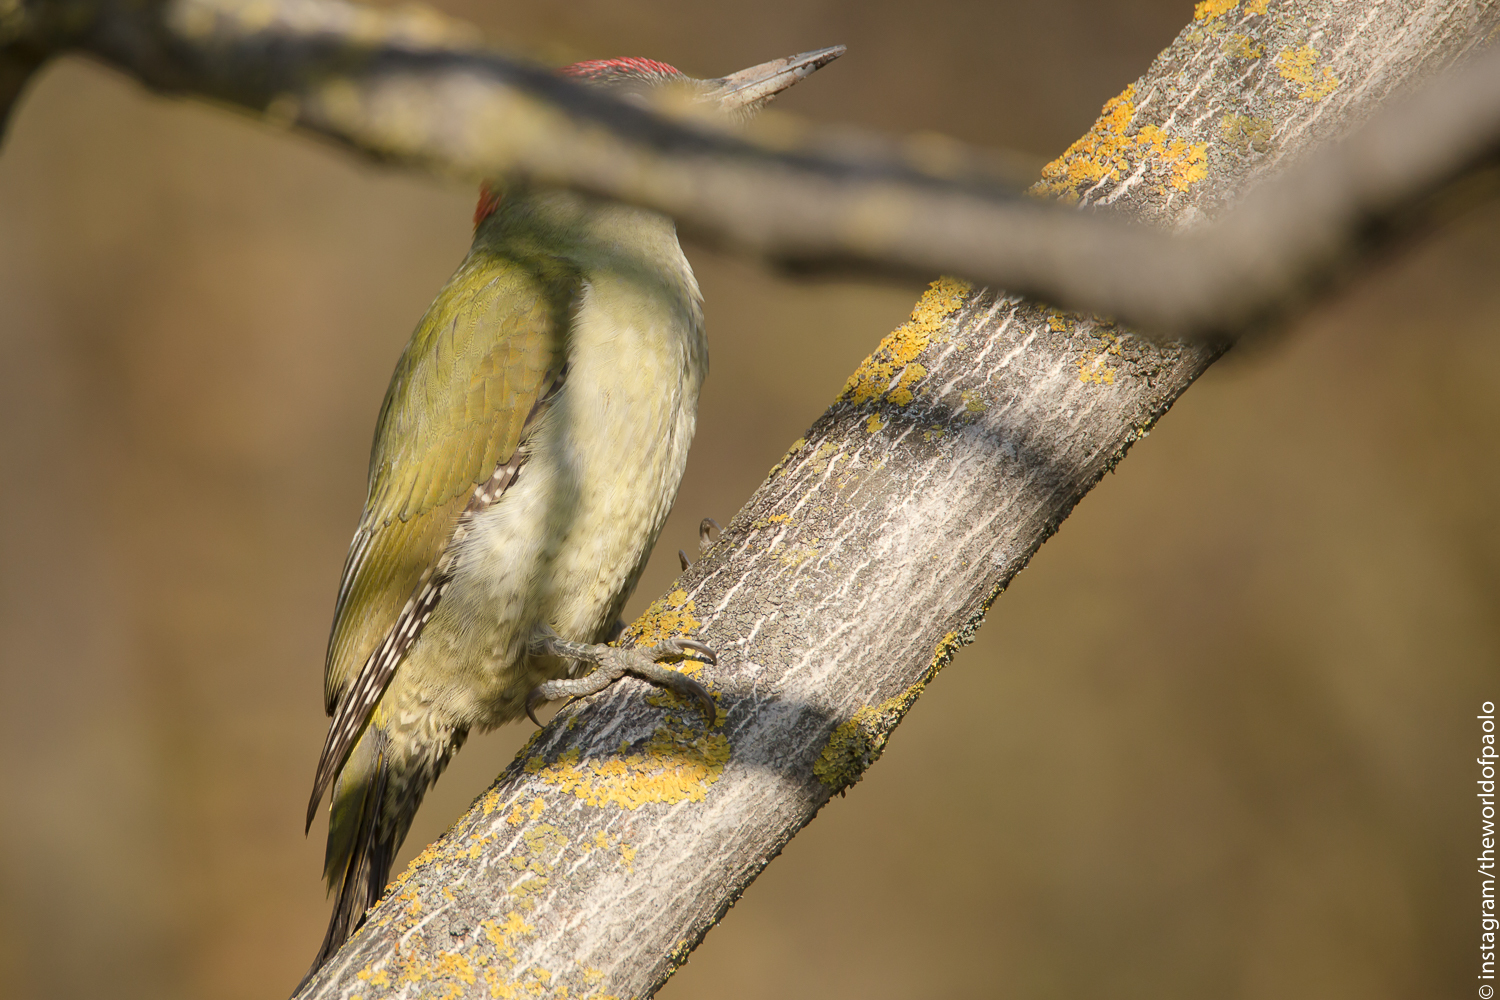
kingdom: Animalia
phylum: Chordata
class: Aves
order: Piciformes
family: Picidae
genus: Picus
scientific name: Picus viridis
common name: European green woodpecker
